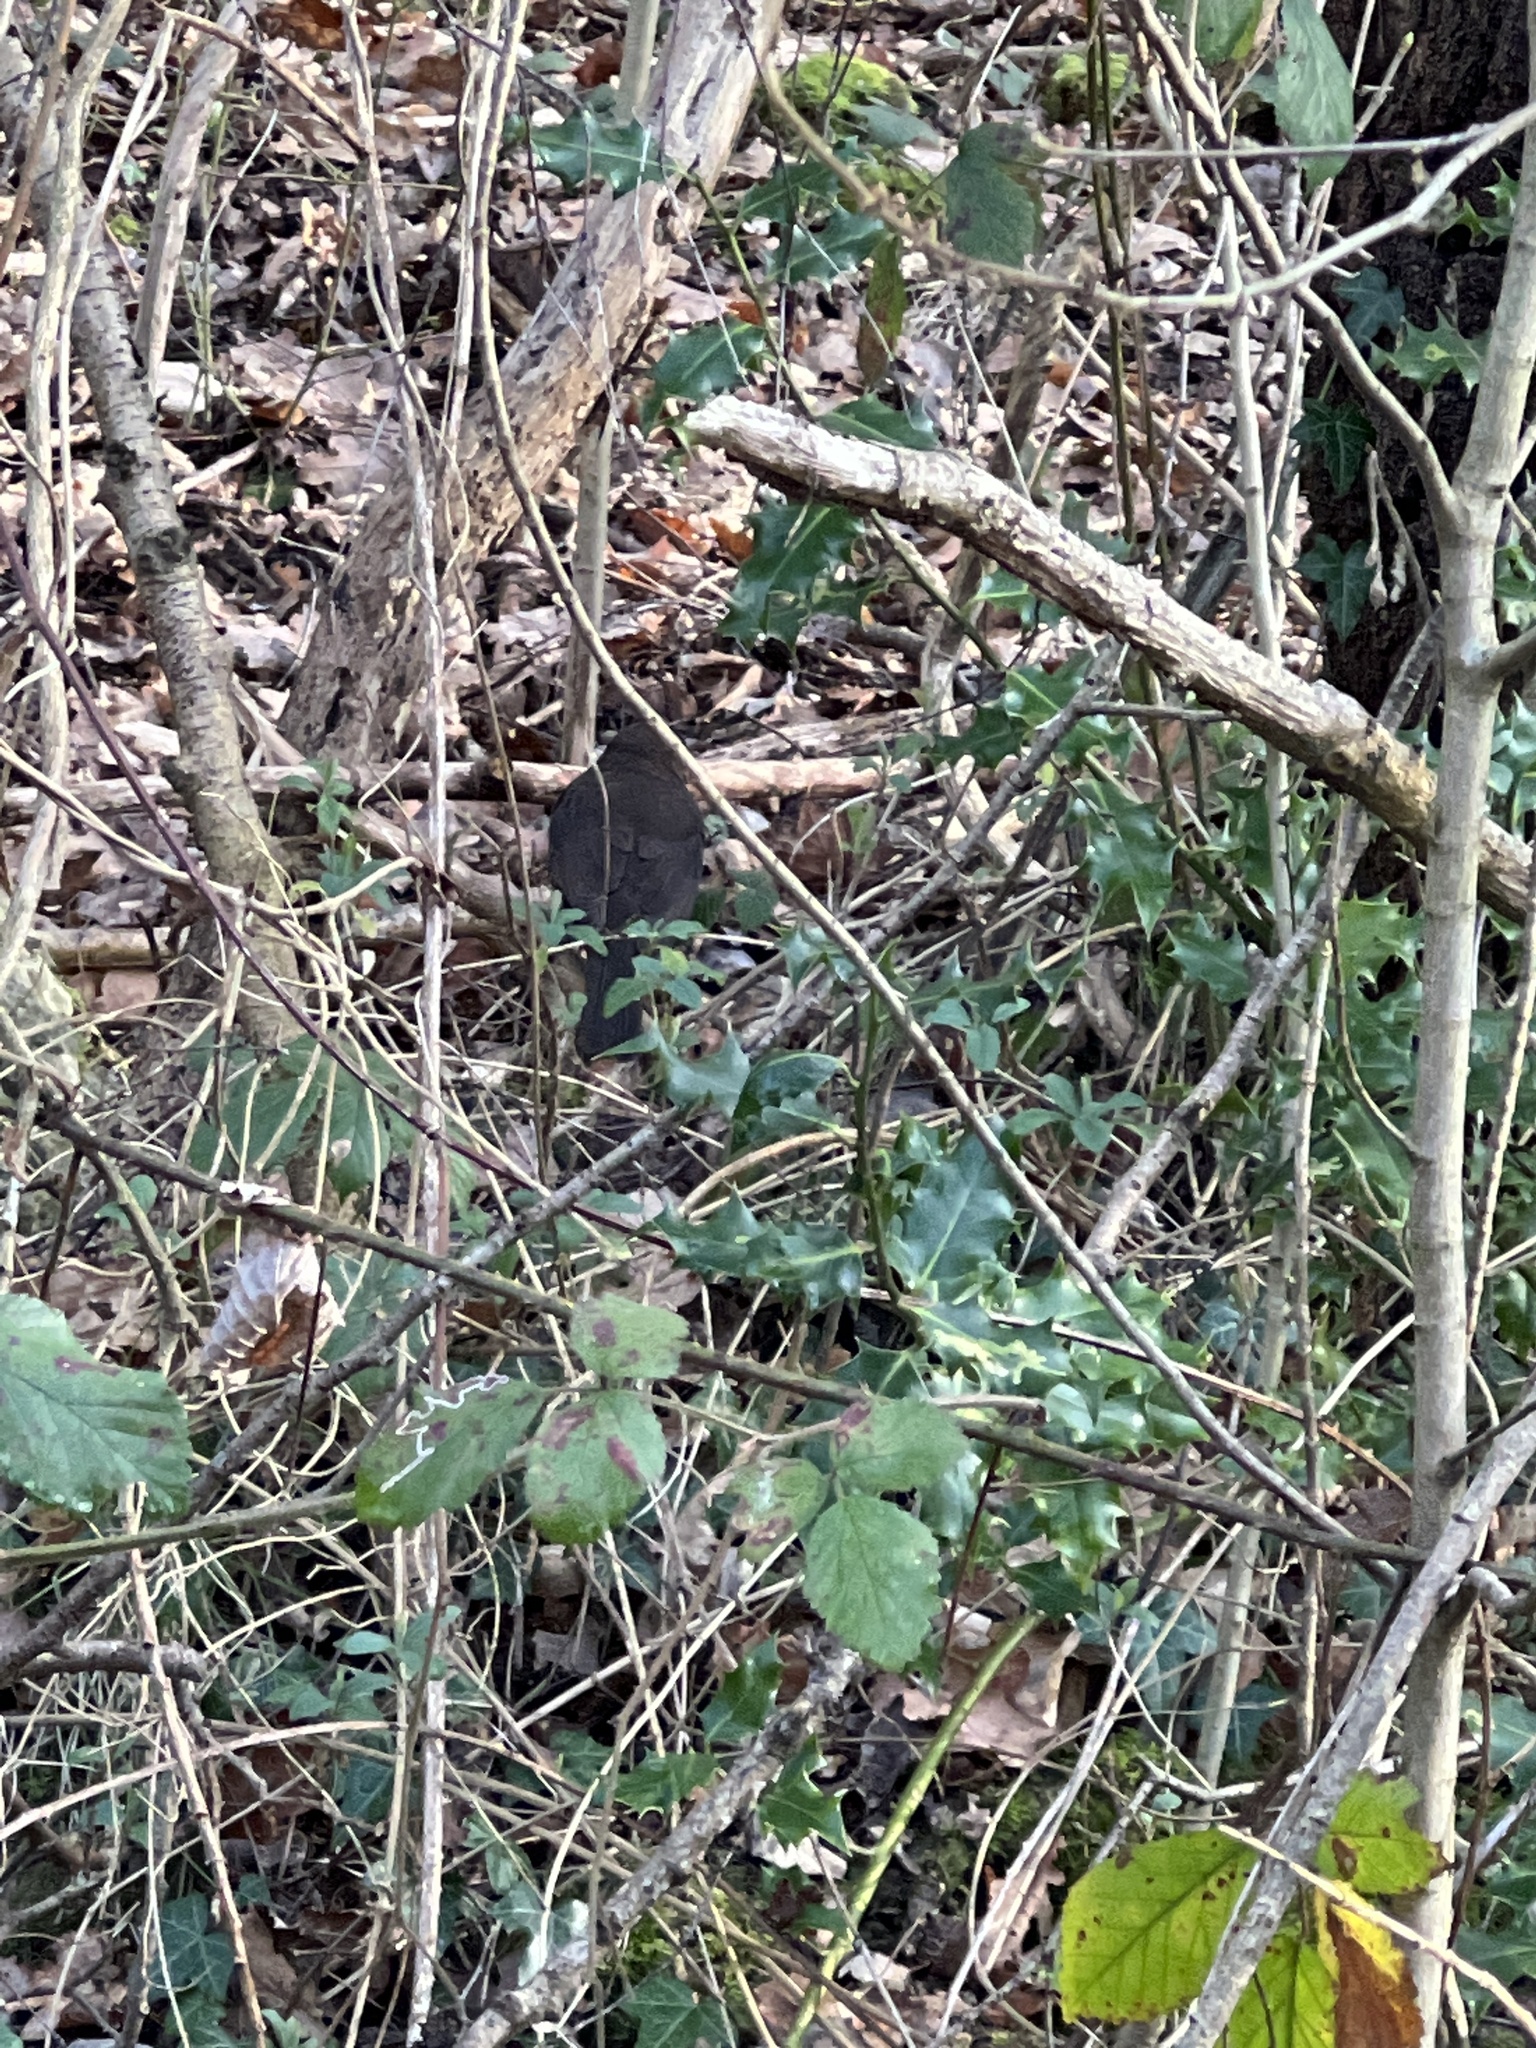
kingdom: Animalia
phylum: Chordata
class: Aves
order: Passeriformes
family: Turdidae
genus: Turdus
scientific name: Turdus merula
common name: Common blackbird
